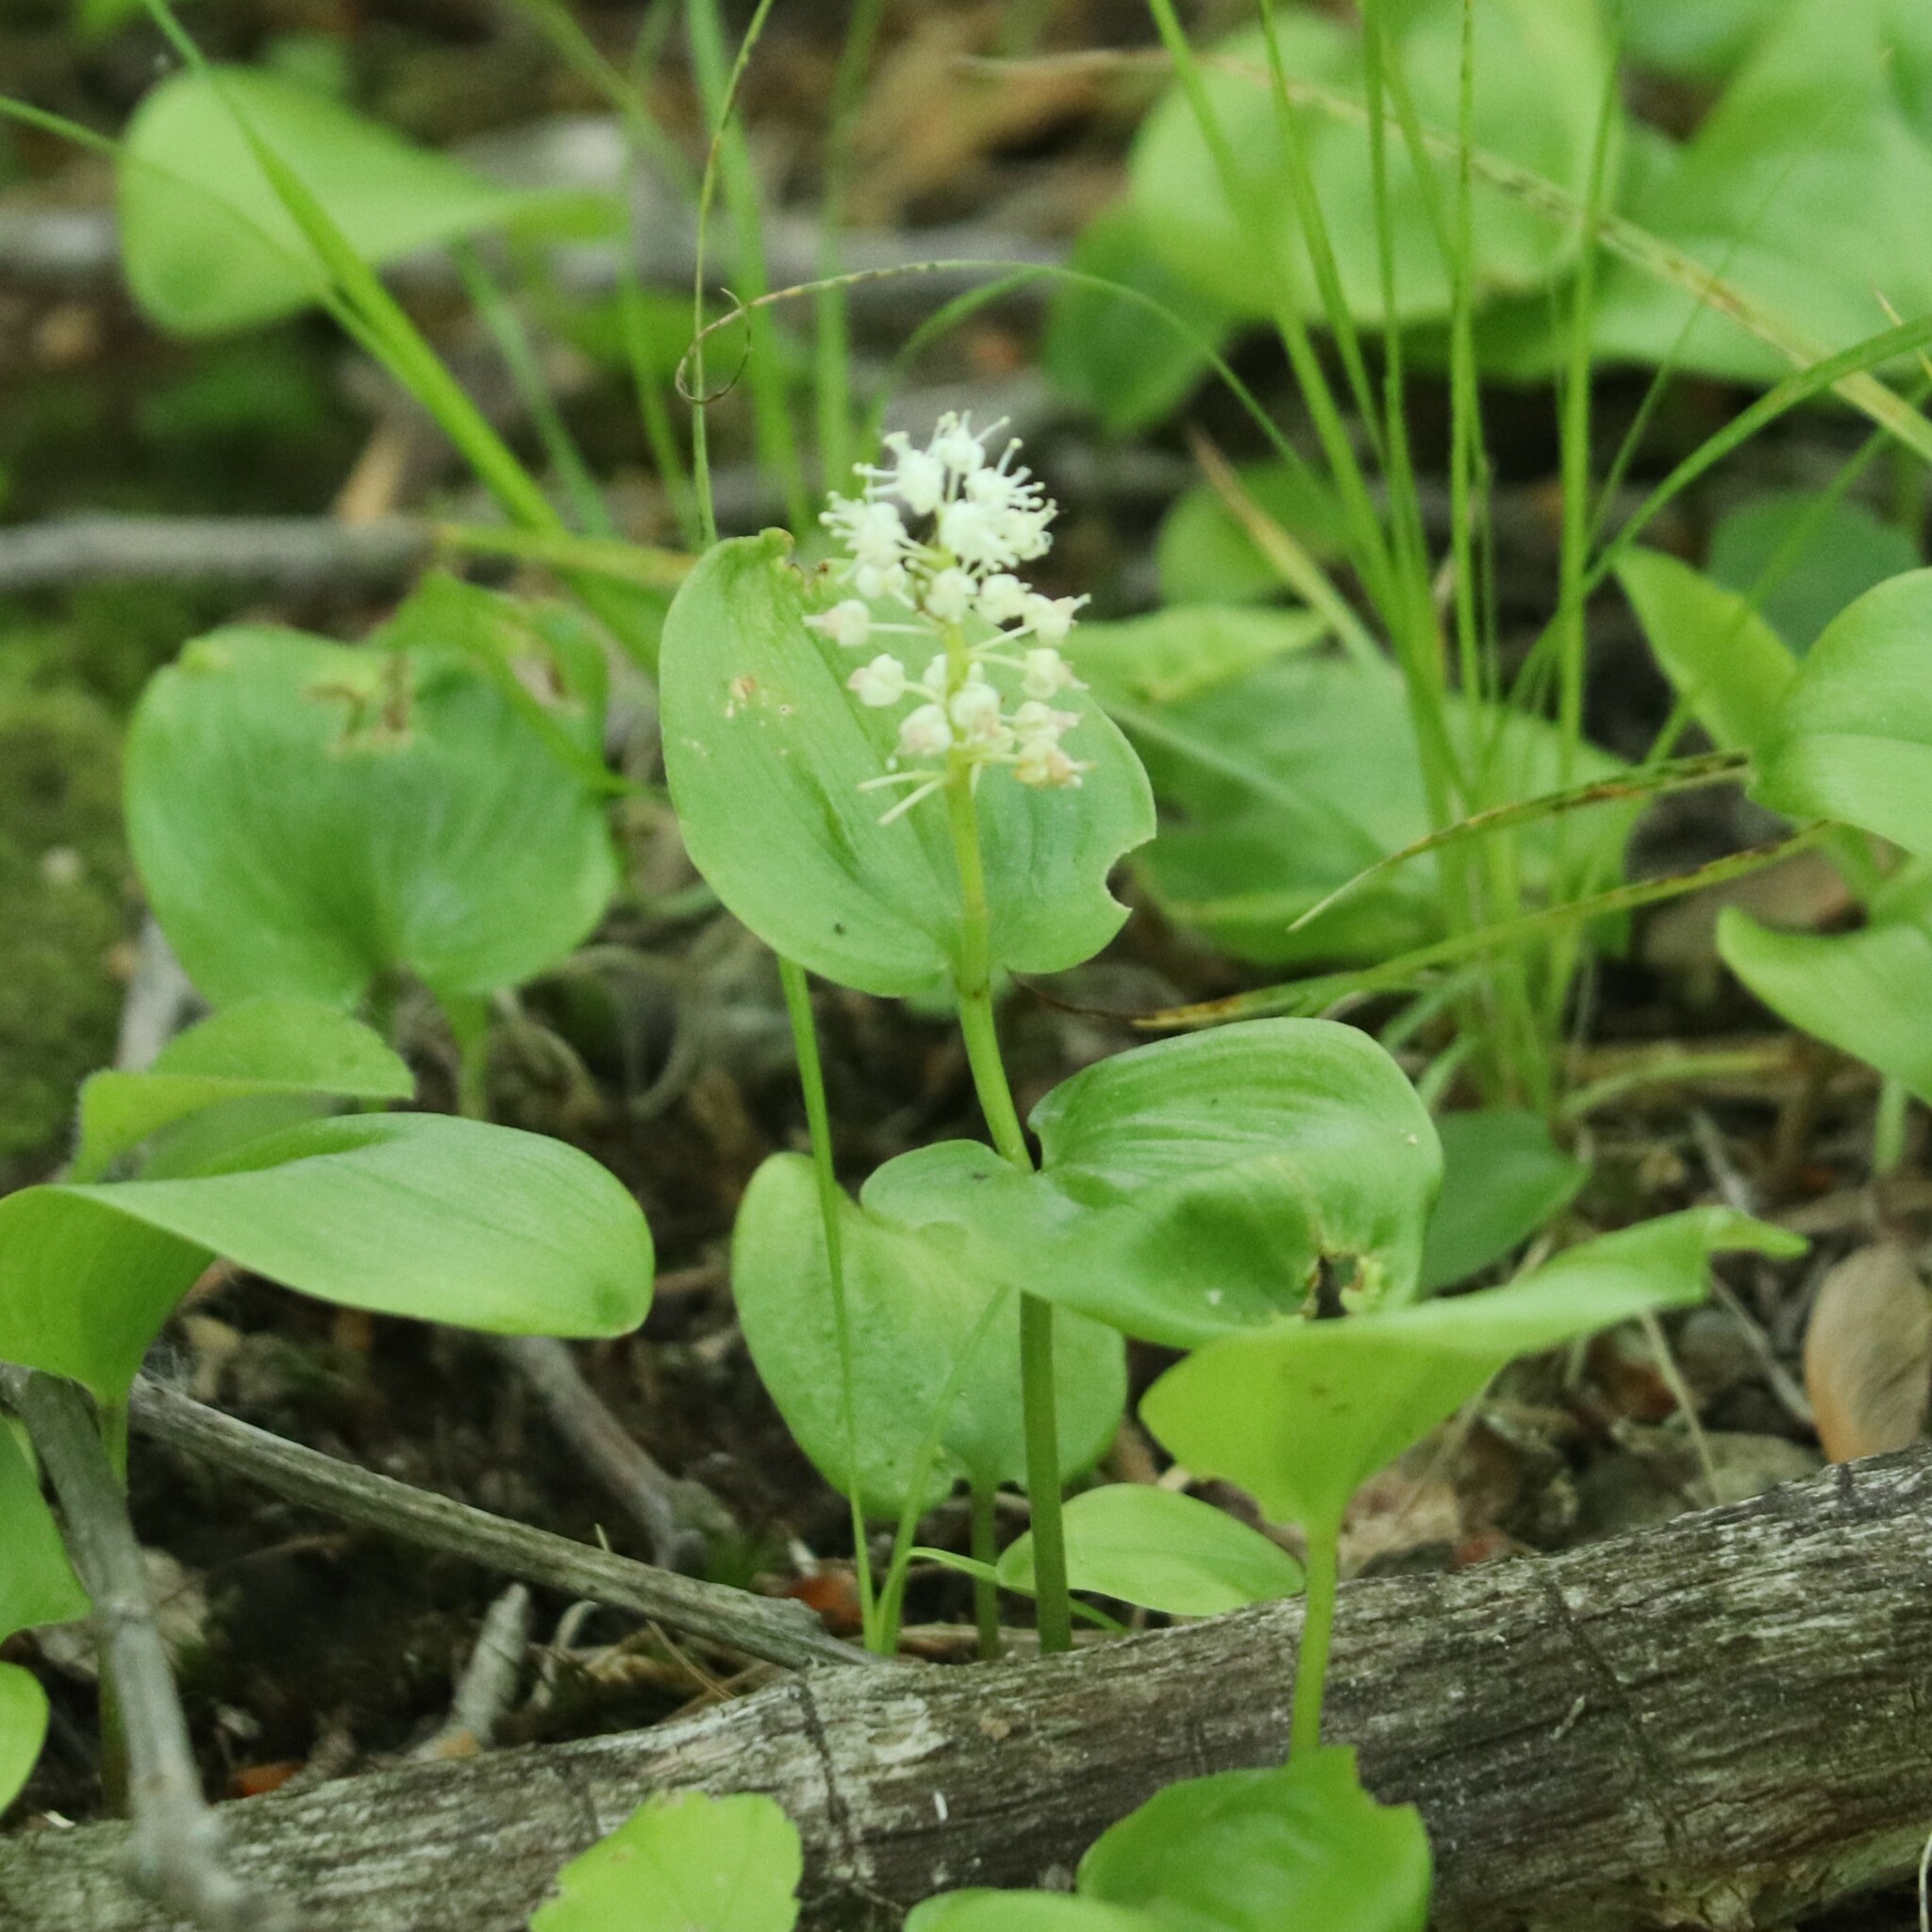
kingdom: Plantae
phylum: Tracheophyta
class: Liliopsida
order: Asparagales
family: Asparagaceae
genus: Maianthemum
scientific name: Maianthemum canadense
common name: False lily-of-the-valley
